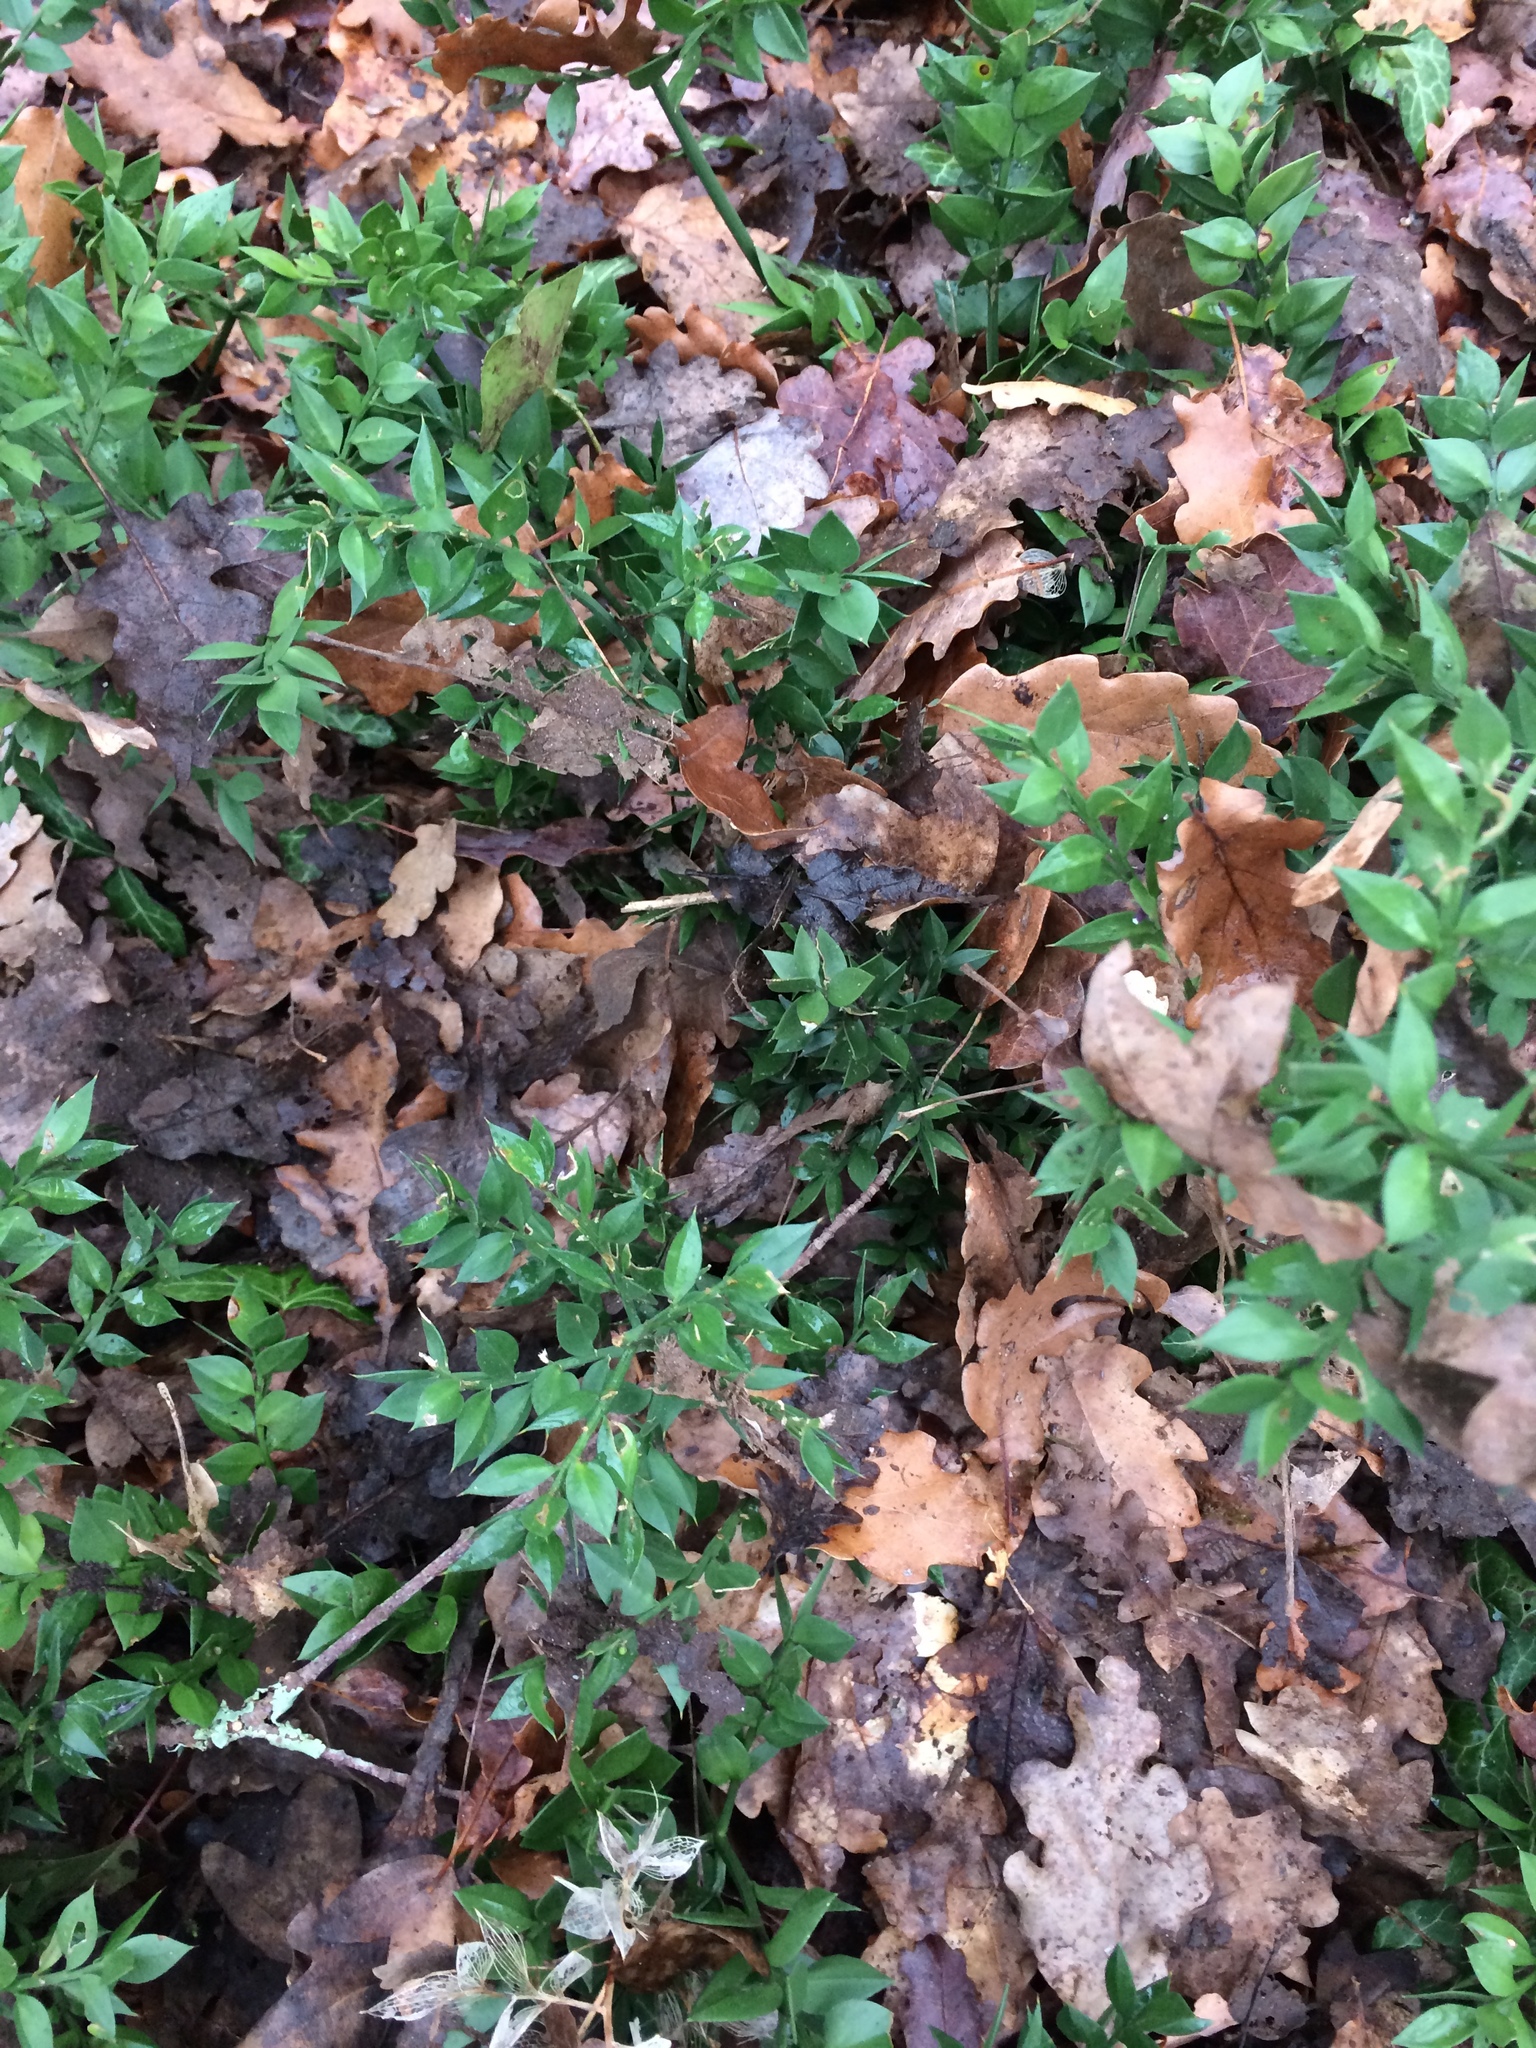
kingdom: Plantae
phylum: Tracheophyta
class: Liliopsida
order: Asparagales
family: Asparagaceae
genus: Ruscus
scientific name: Ruscus aculeatus
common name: Butcher's-broom
